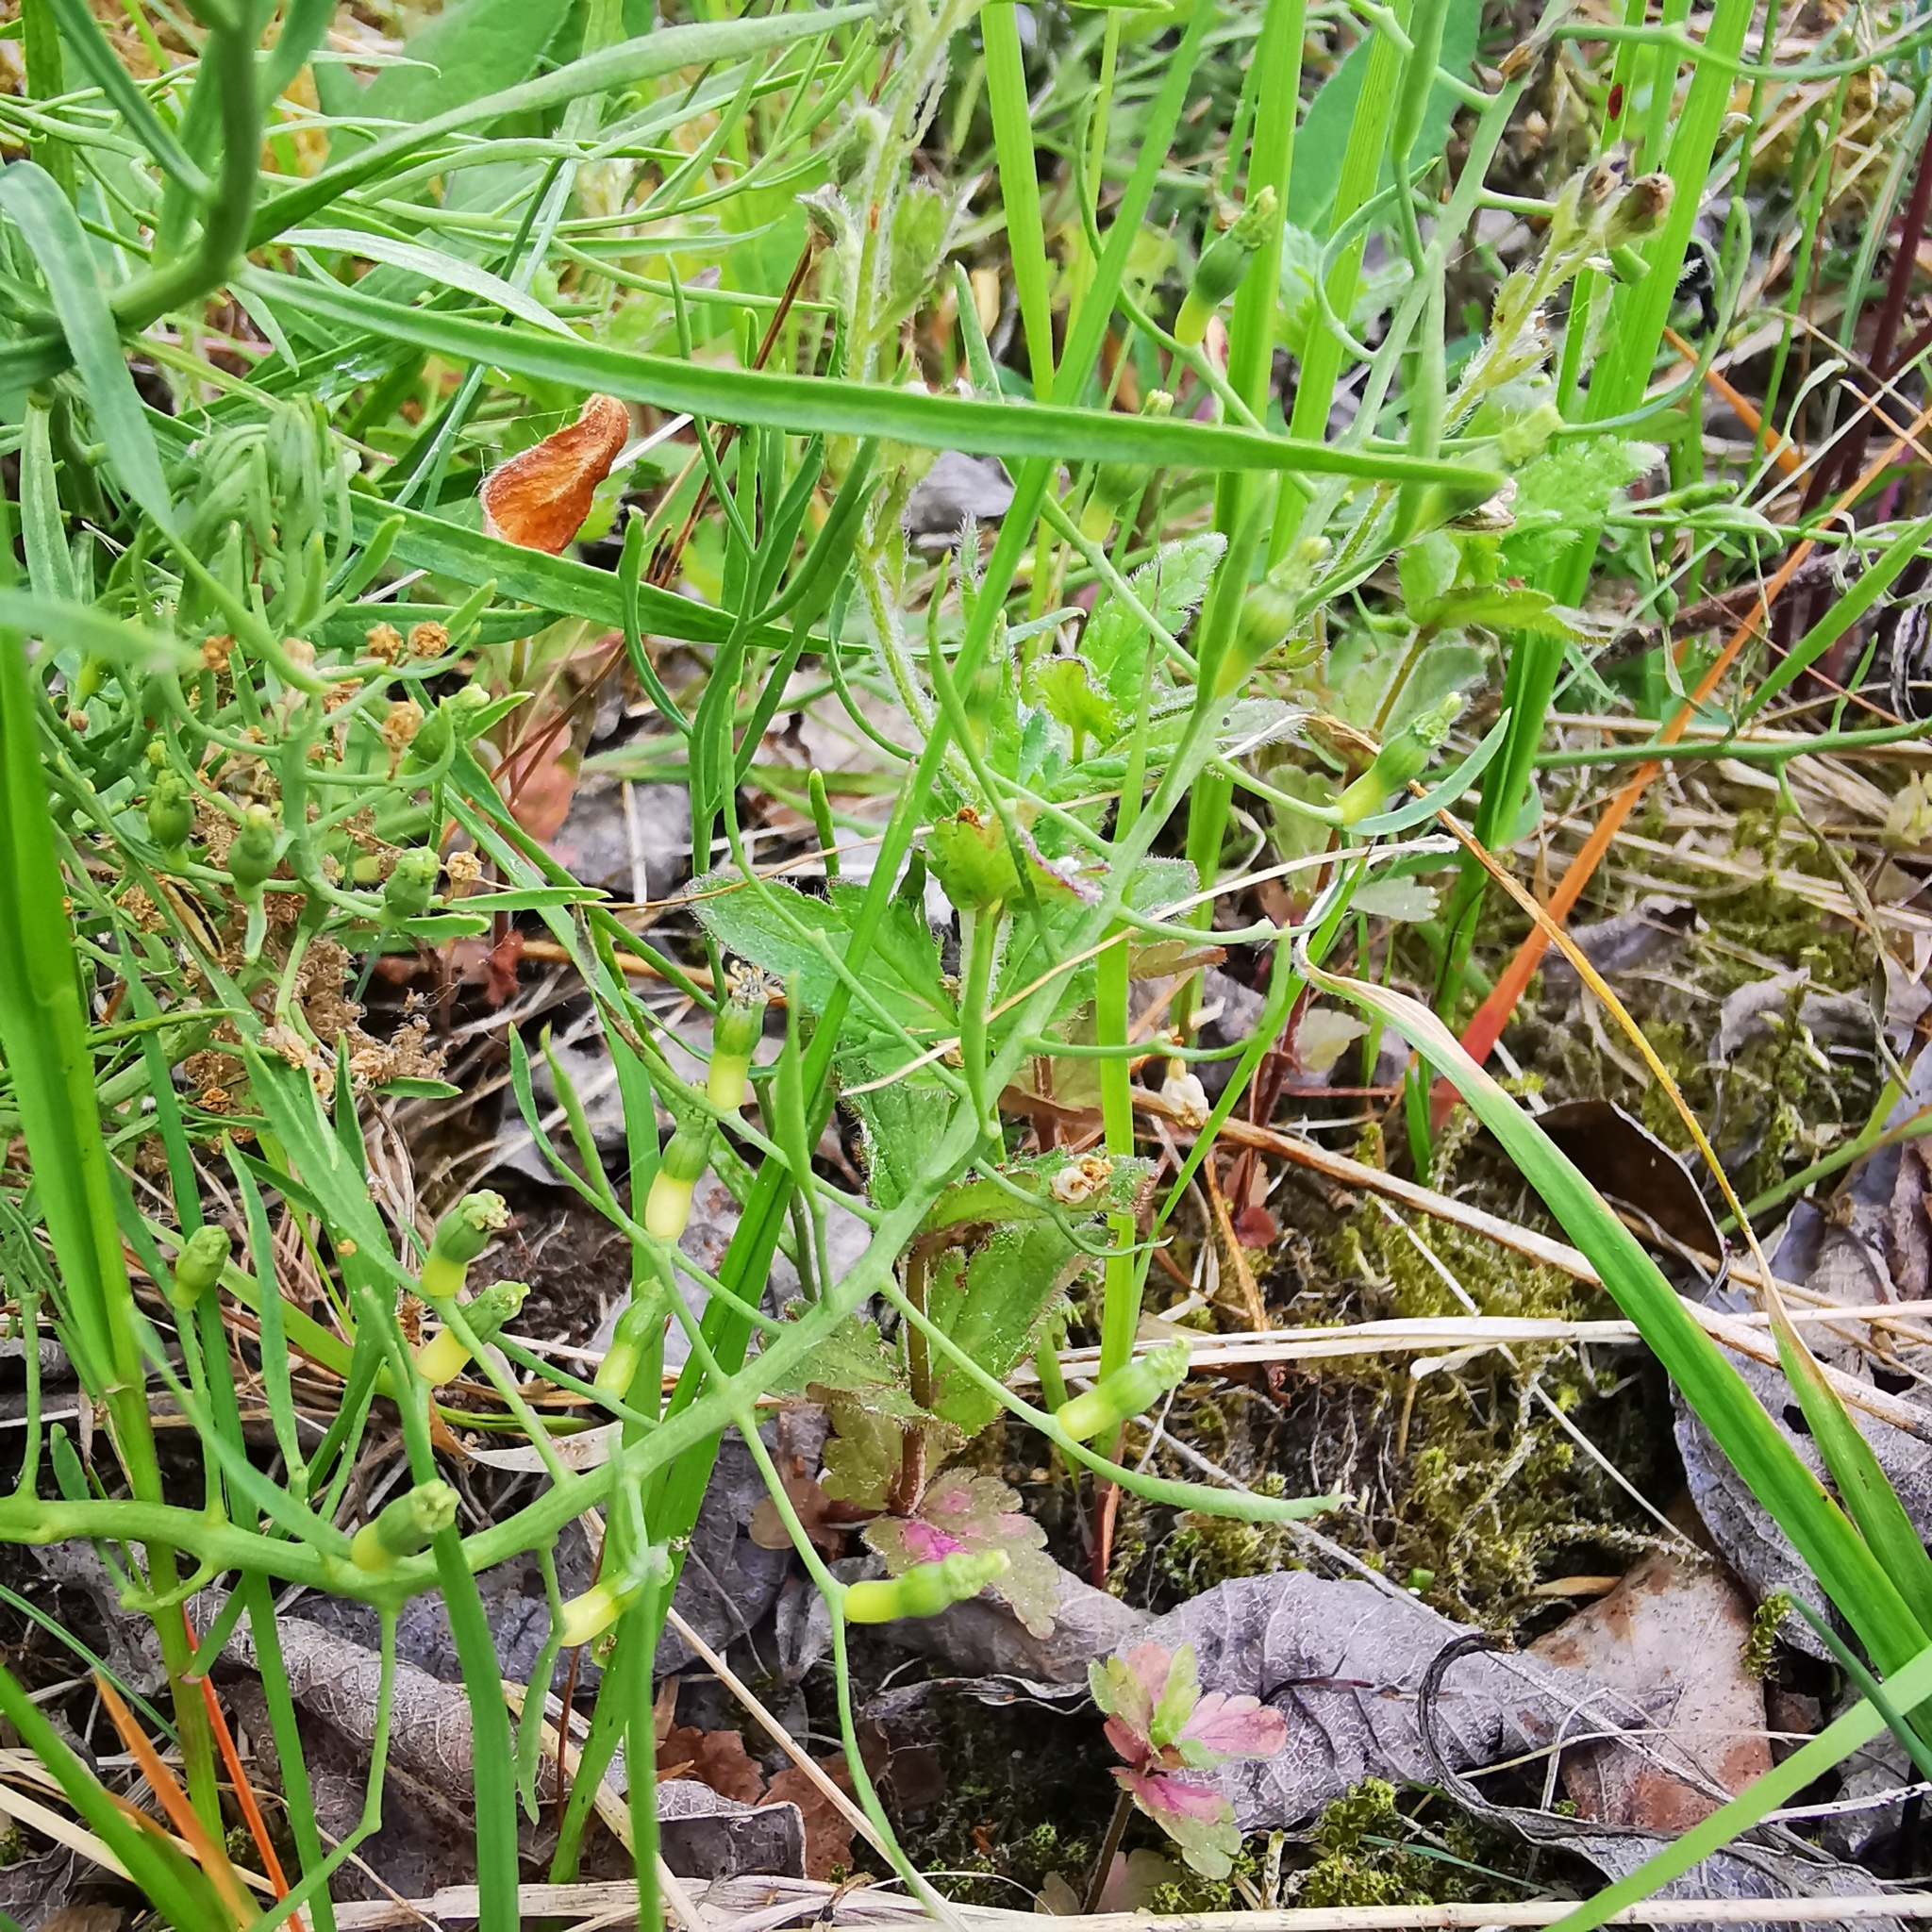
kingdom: Plantae
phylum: Tracheophyta
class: Magnoliopsida
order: Santalales
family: Thesiaceae
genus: Thesium
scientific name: Thesium ebracteatum
